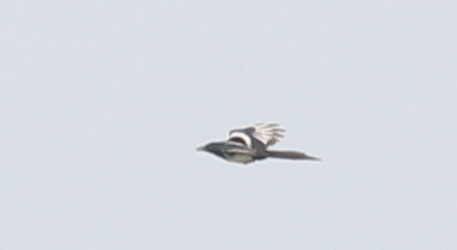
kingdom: Animalia
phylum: Chordata
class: Aves
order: Passeriformes
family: Corvidae
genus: Pica
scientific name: Pica pica
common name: Eurasian magpie
